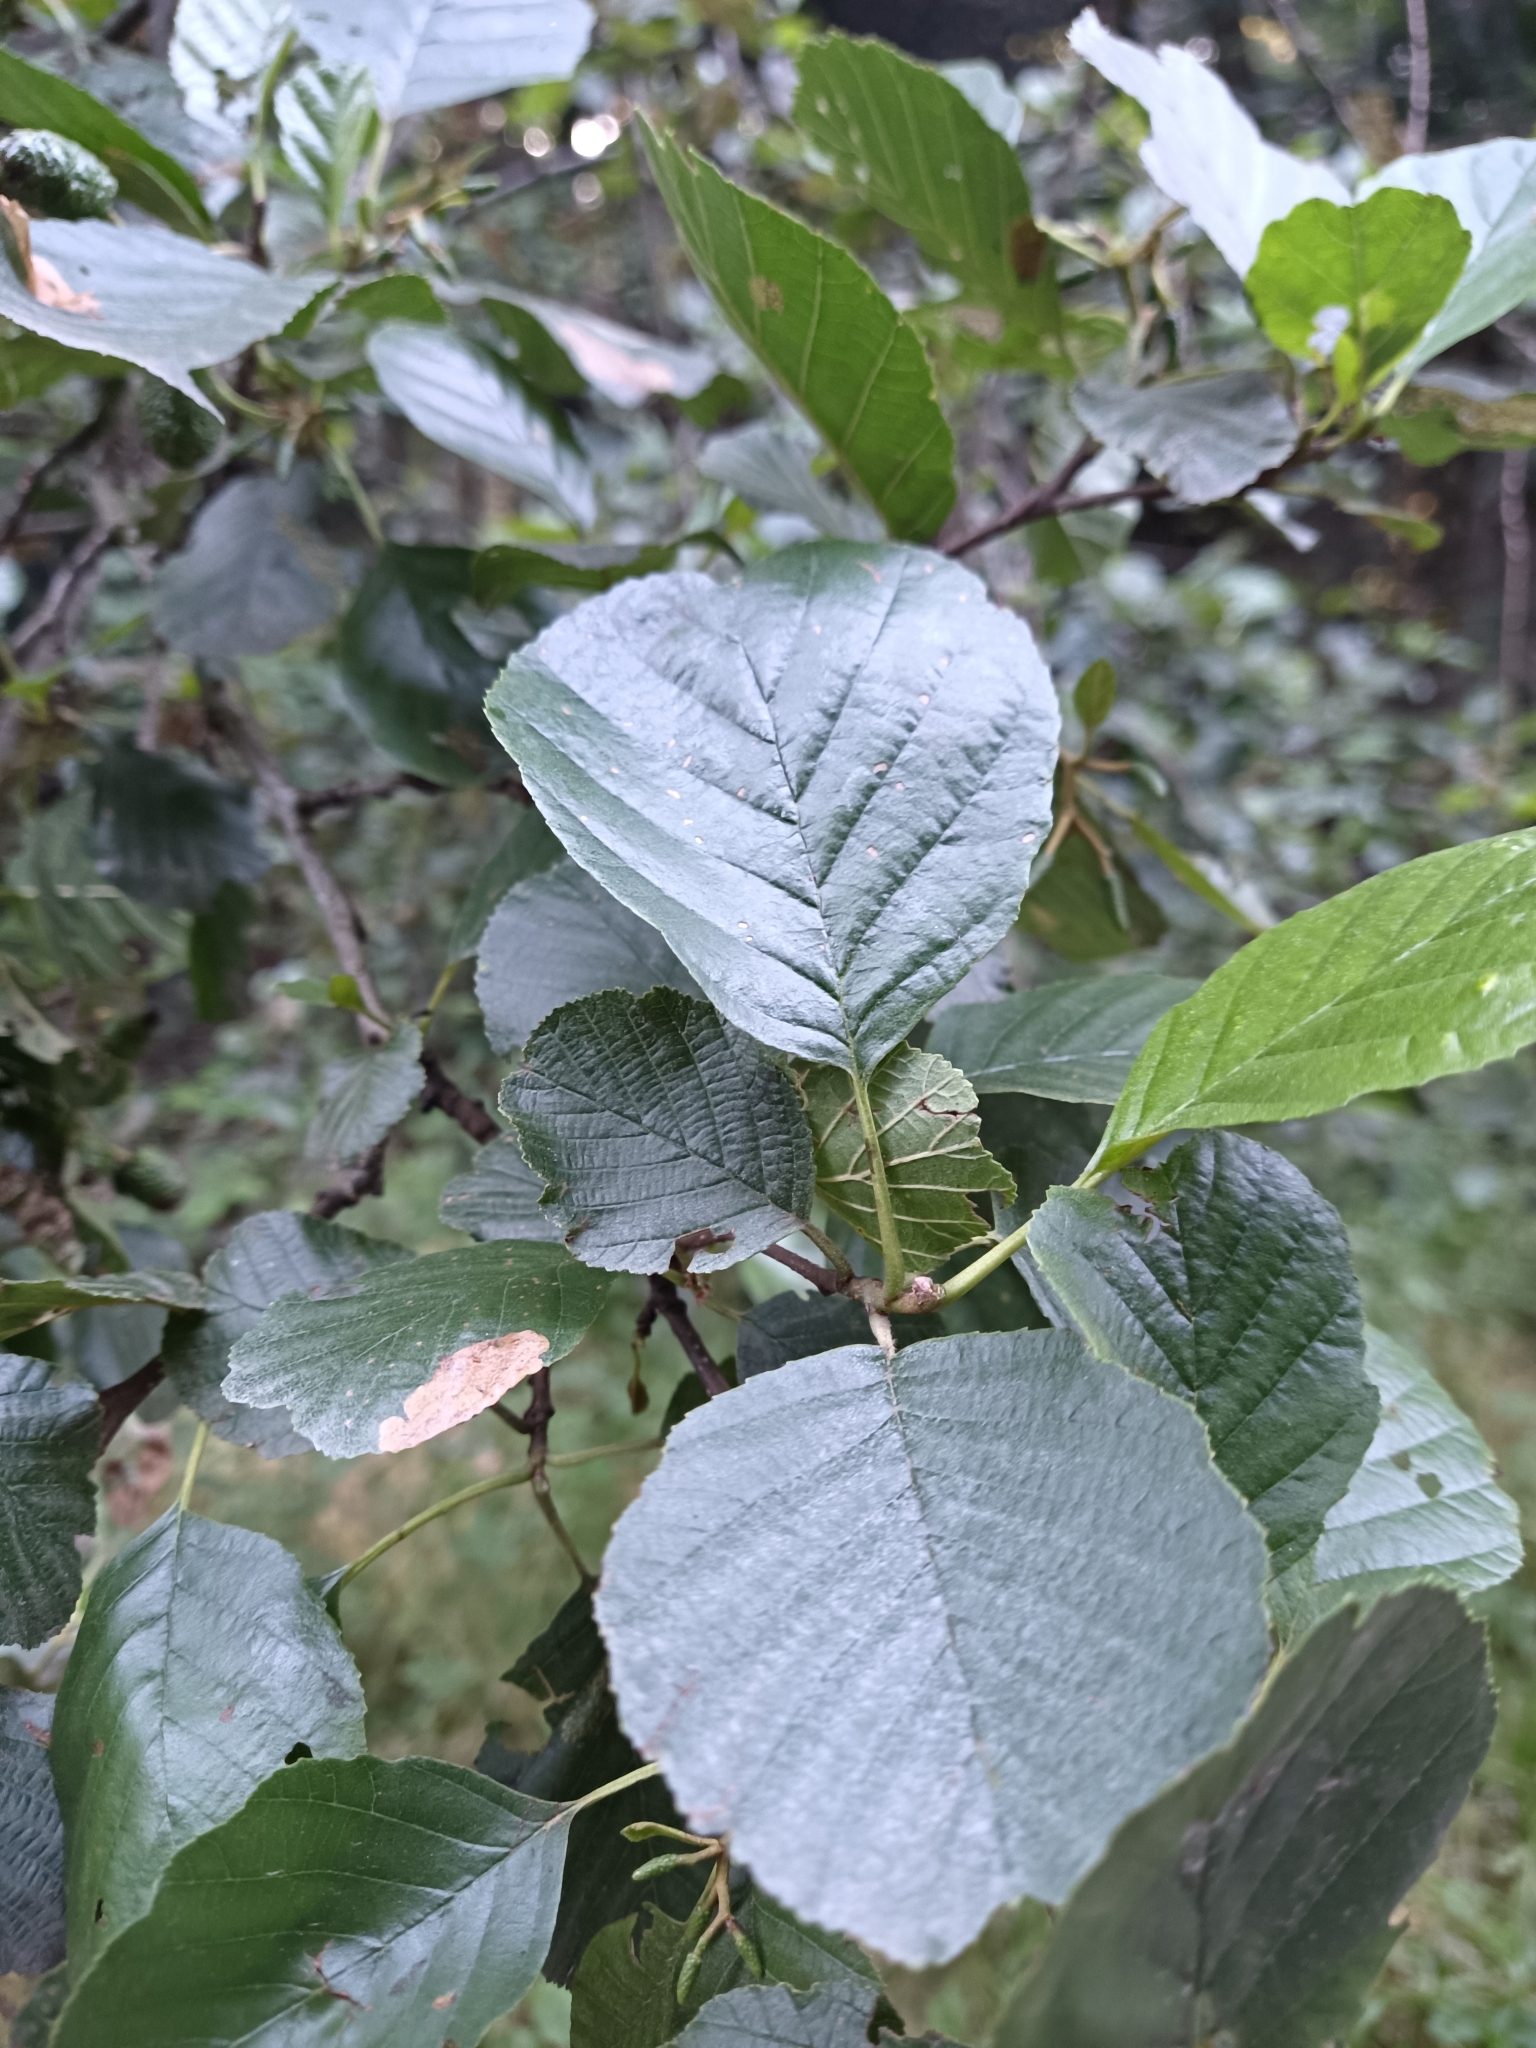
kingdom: Plantae
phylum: Tracheophyta
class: Magnoliopsida
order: Fagales
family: Betulaceae
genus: Alnus
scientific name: Alnus glutinosa
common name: Black alder
